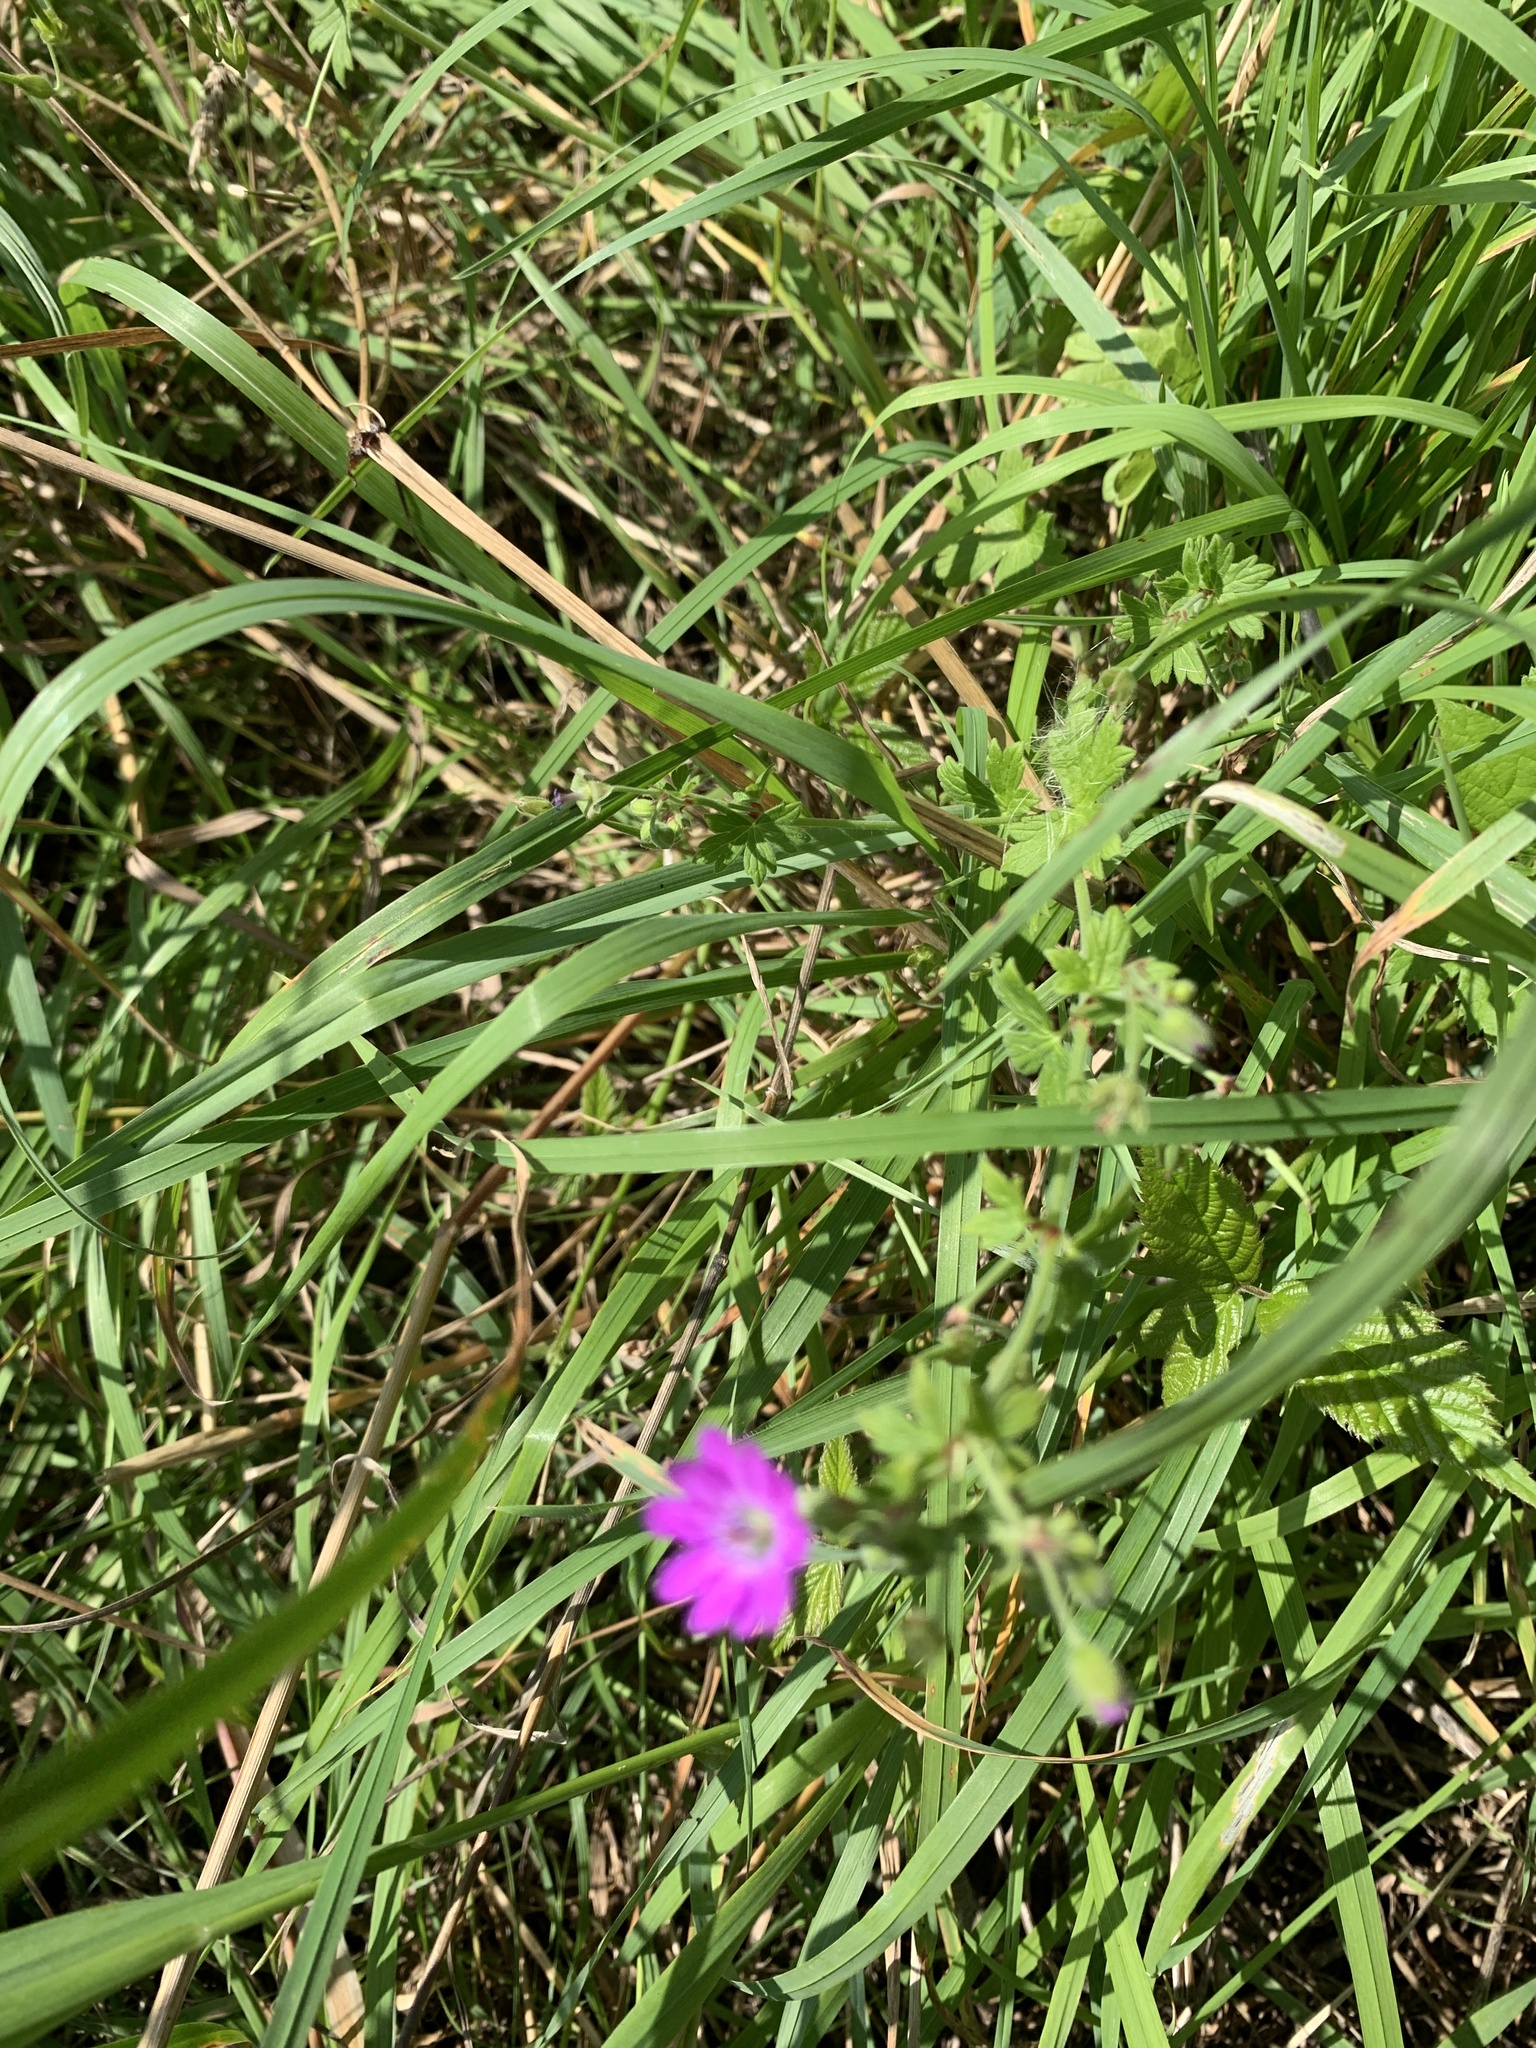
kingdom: Plantae
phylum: Tracheophyta
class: Magnoliopsida
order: Geraniales
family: Geraniaceae
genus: Geranium
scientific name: Geranium pyrenaicum
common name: Hedgerow crane's-bill
